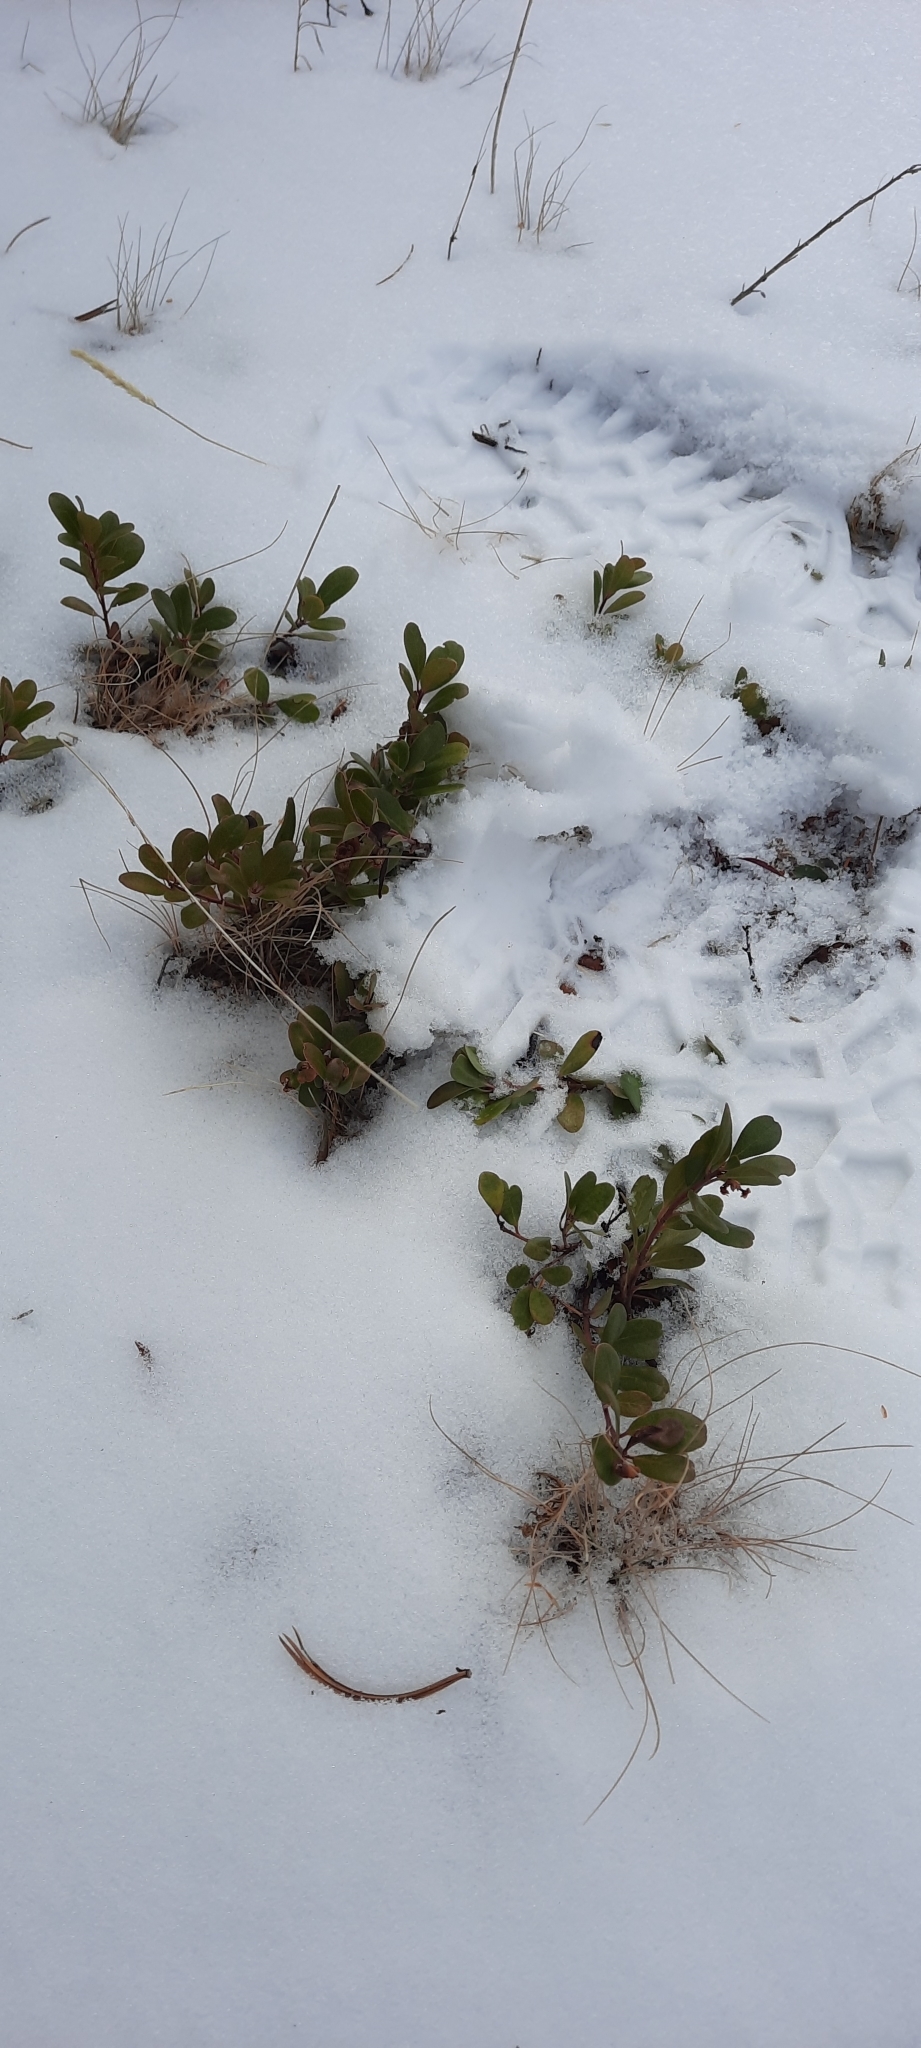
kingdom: Plantae
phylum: Tracheophyta
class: Magnoliopsida
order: Ericales
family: Ericaceae
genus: Arctostaphylos
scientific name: Arctostaphylos uva-ursi
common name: Bearberry
